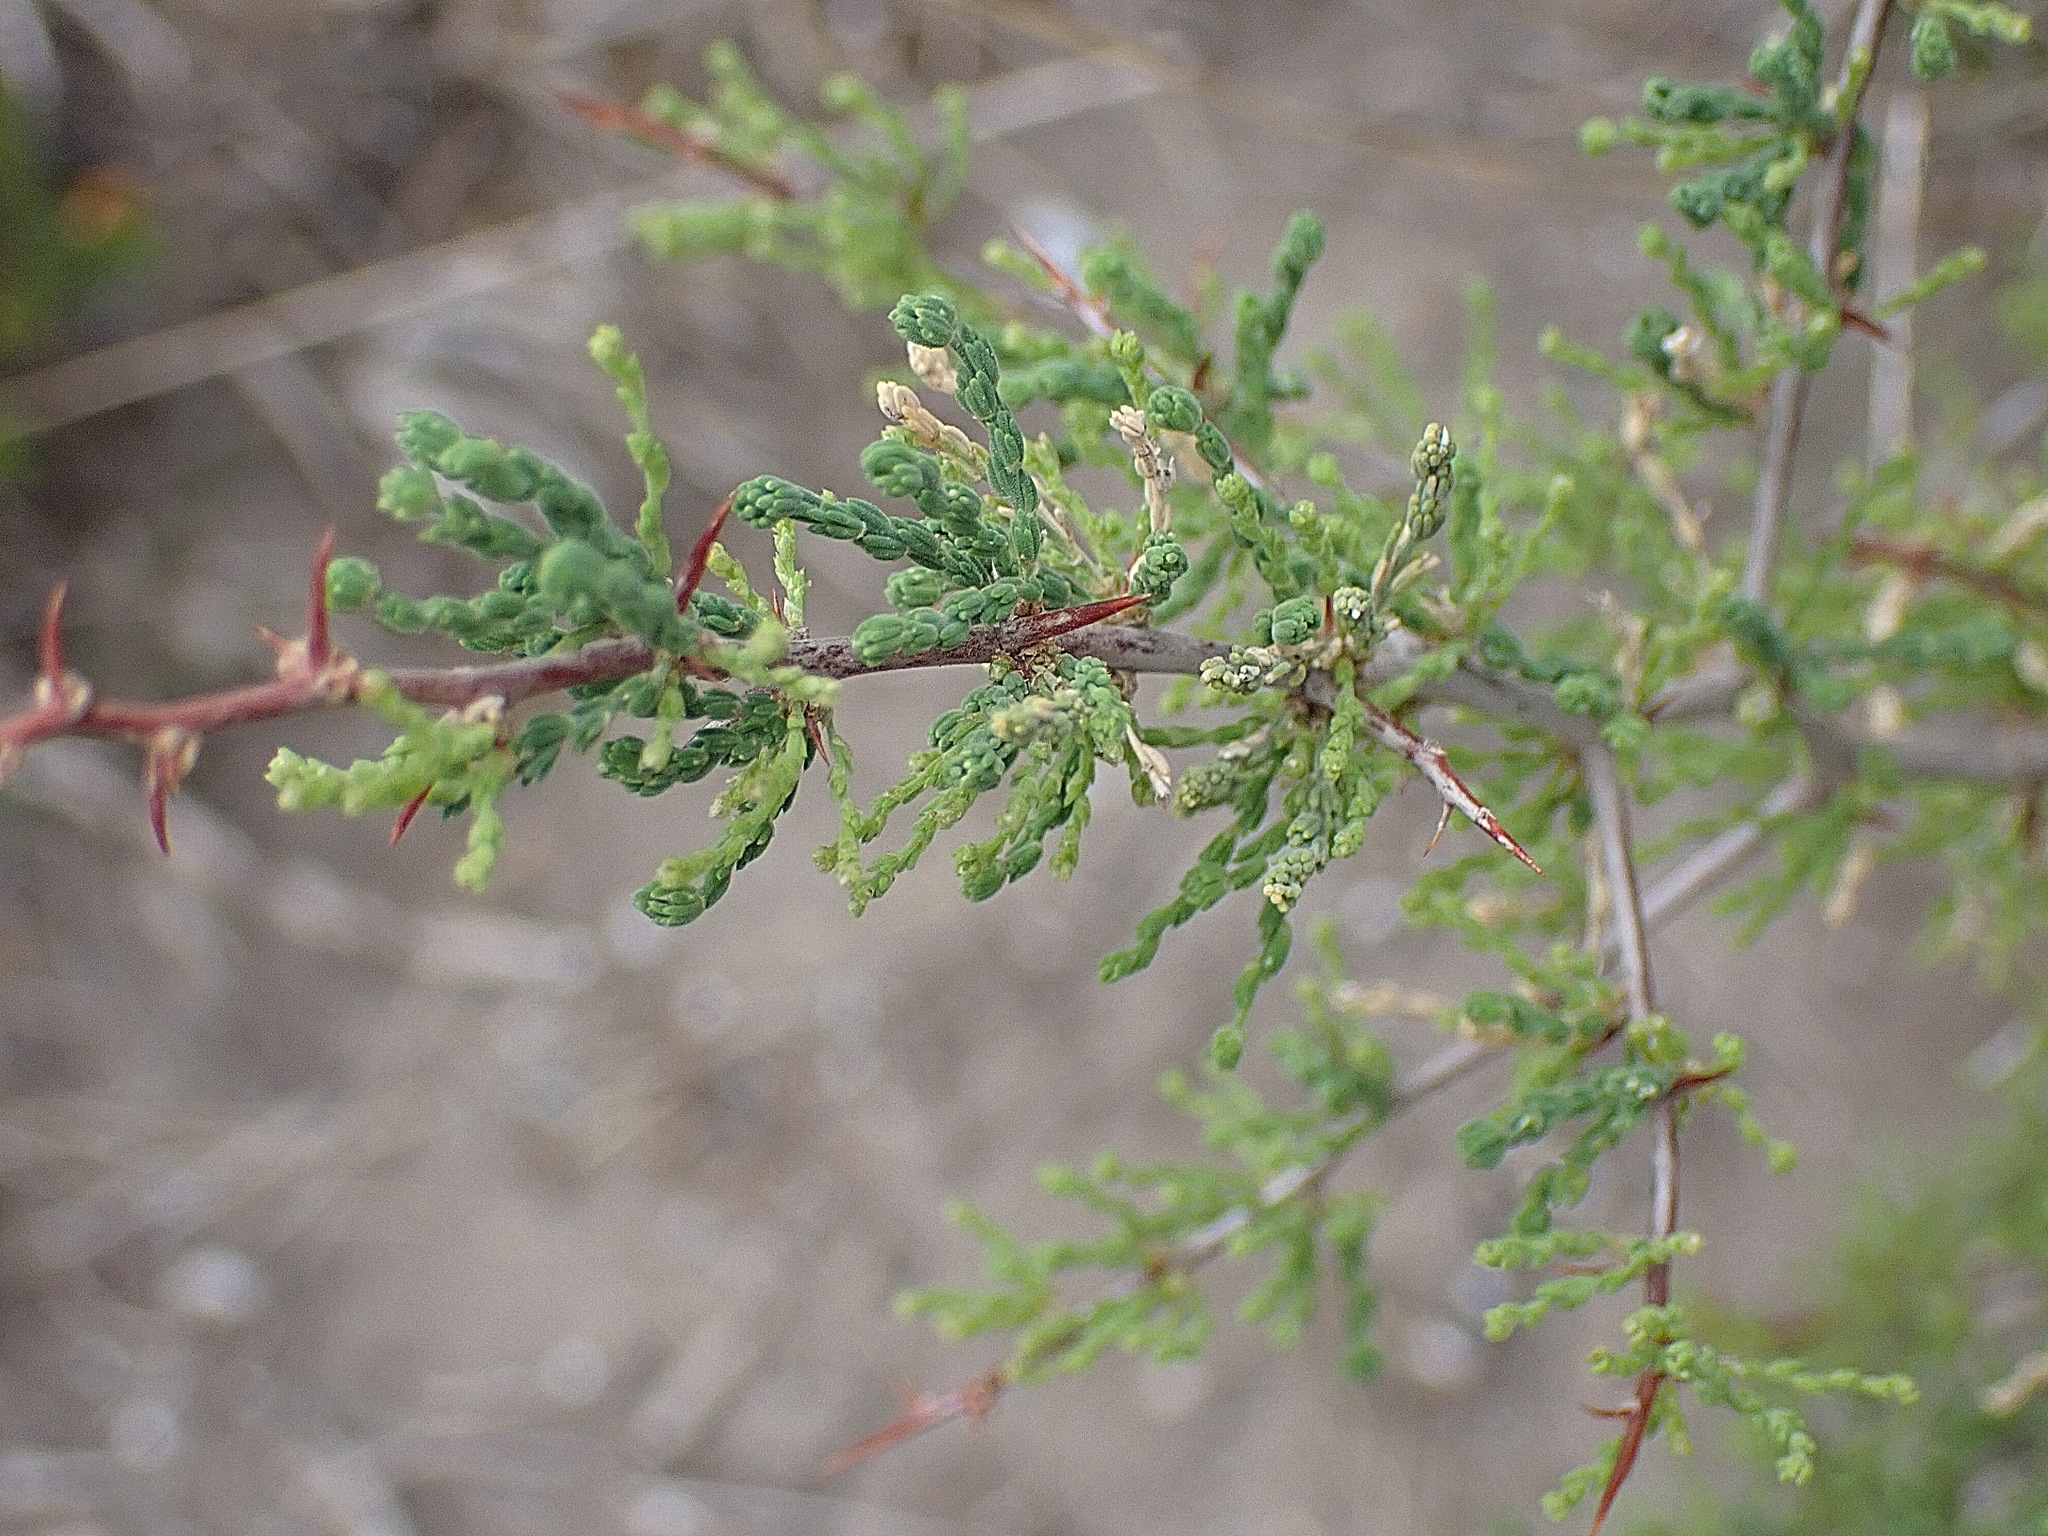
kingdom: Plantae
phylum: Tracheophyta
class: Liliopsida
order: Asparagales
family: Asparagaceae
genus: Asparagus
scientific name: Asparagus capensis
